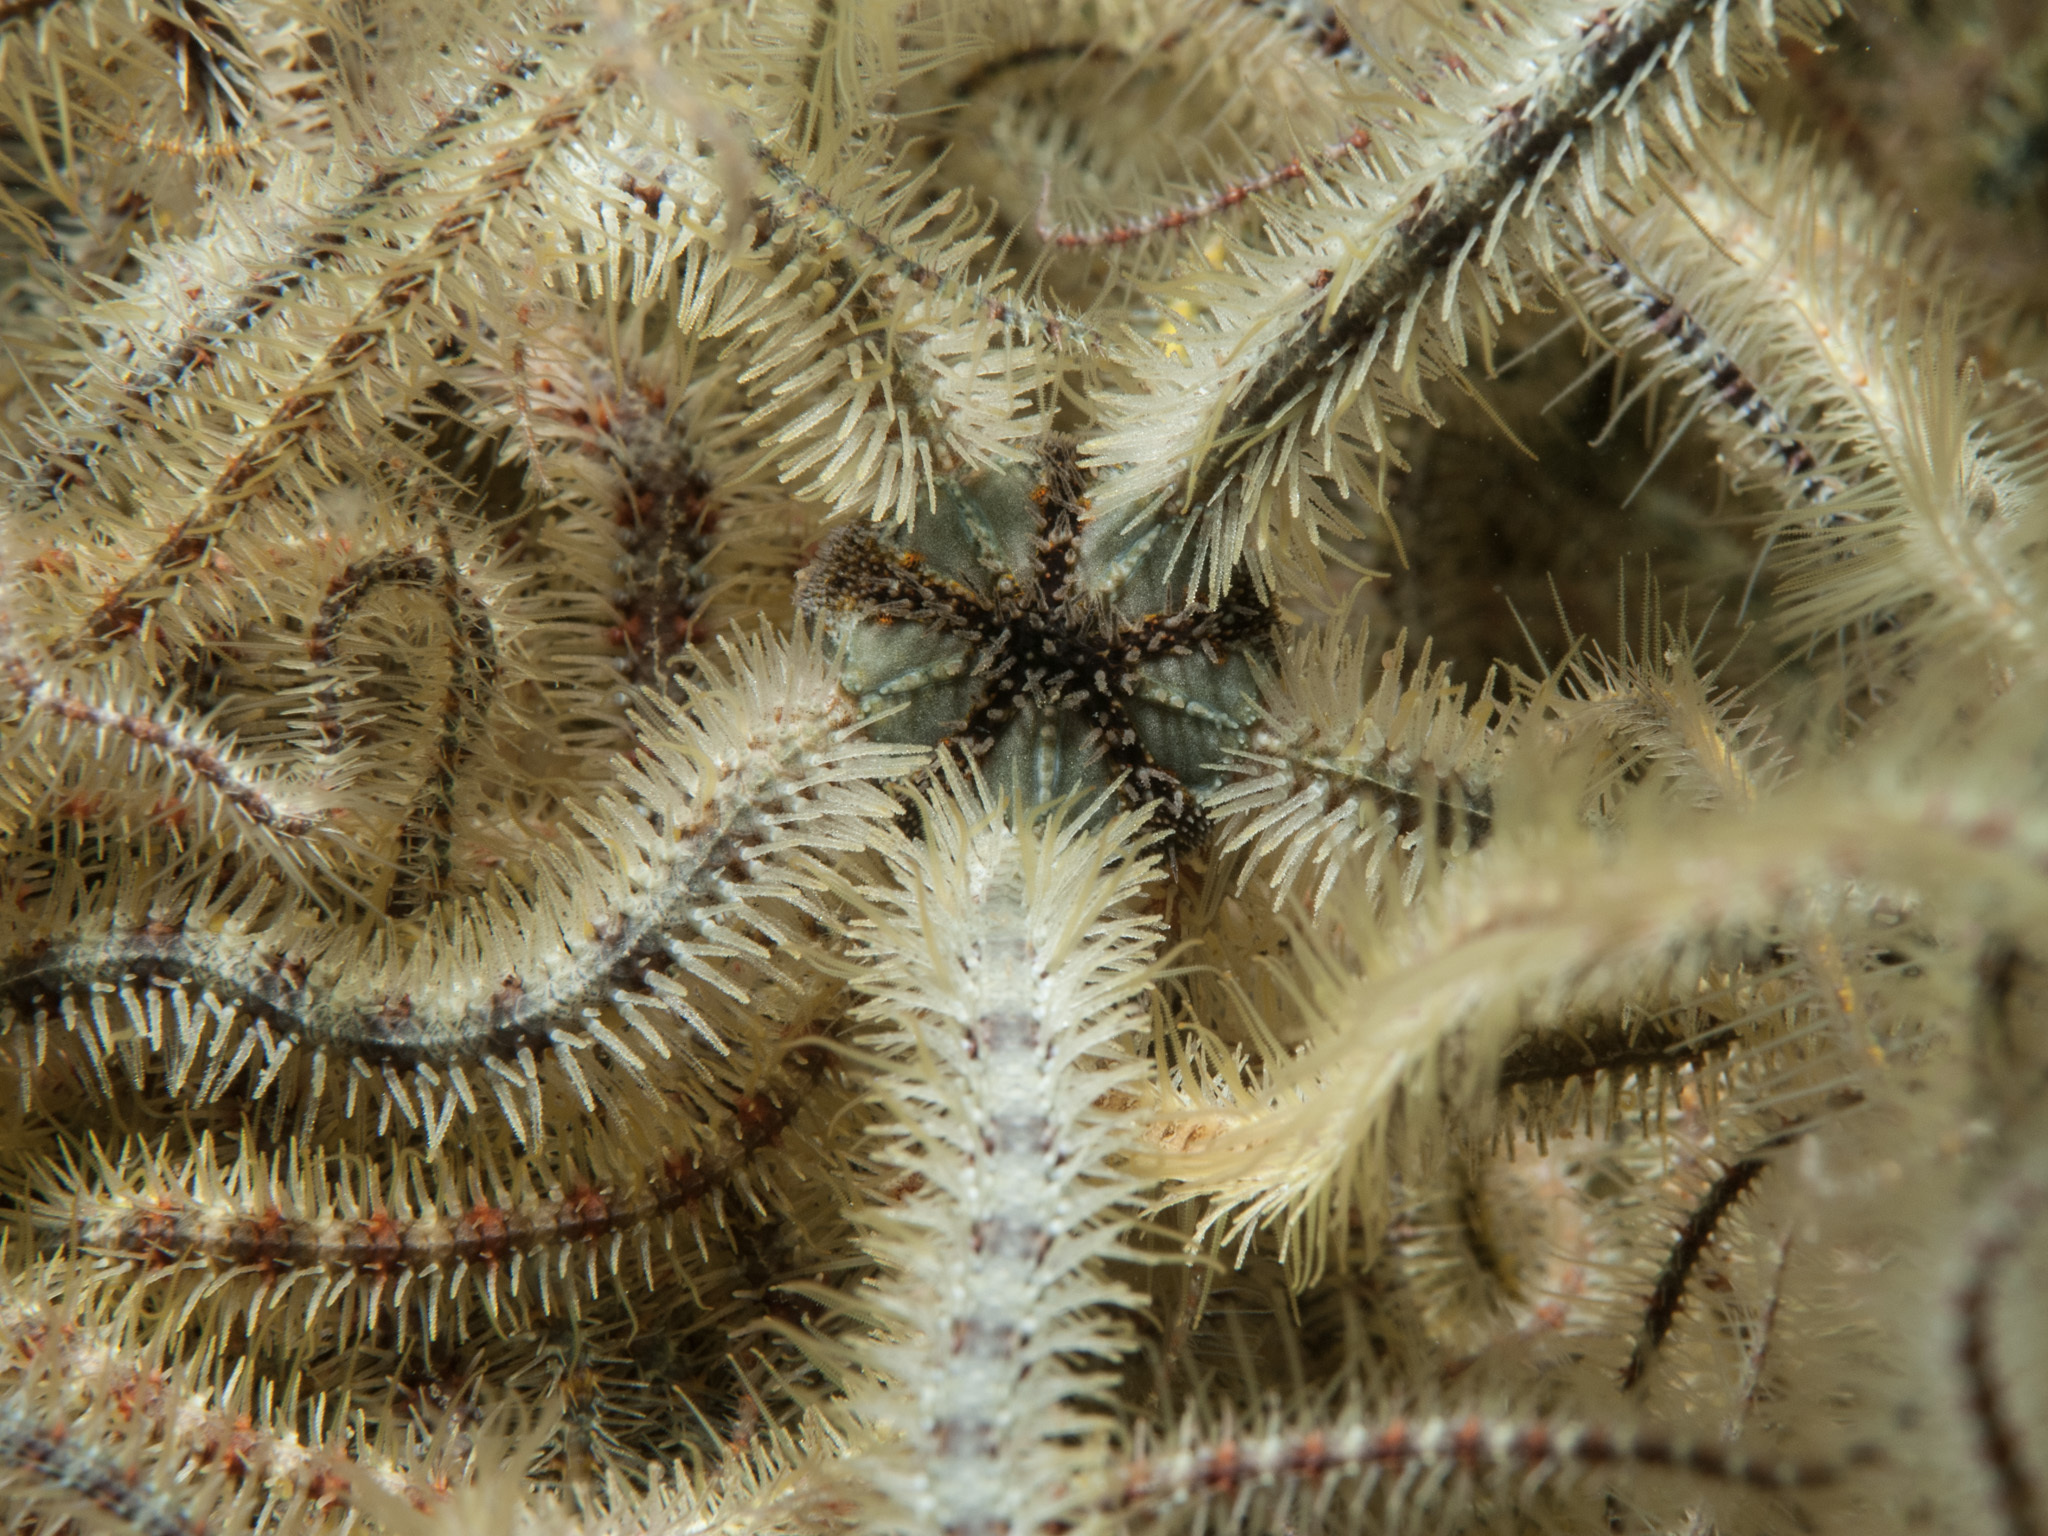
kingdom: Animalia
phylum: Echinodermata
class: Ophiuroidea
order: Amphilepidida
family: Ophiotrichidae
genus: Ophiothrix
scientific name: Ophiothrix fragilis
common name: Common brittlestar
